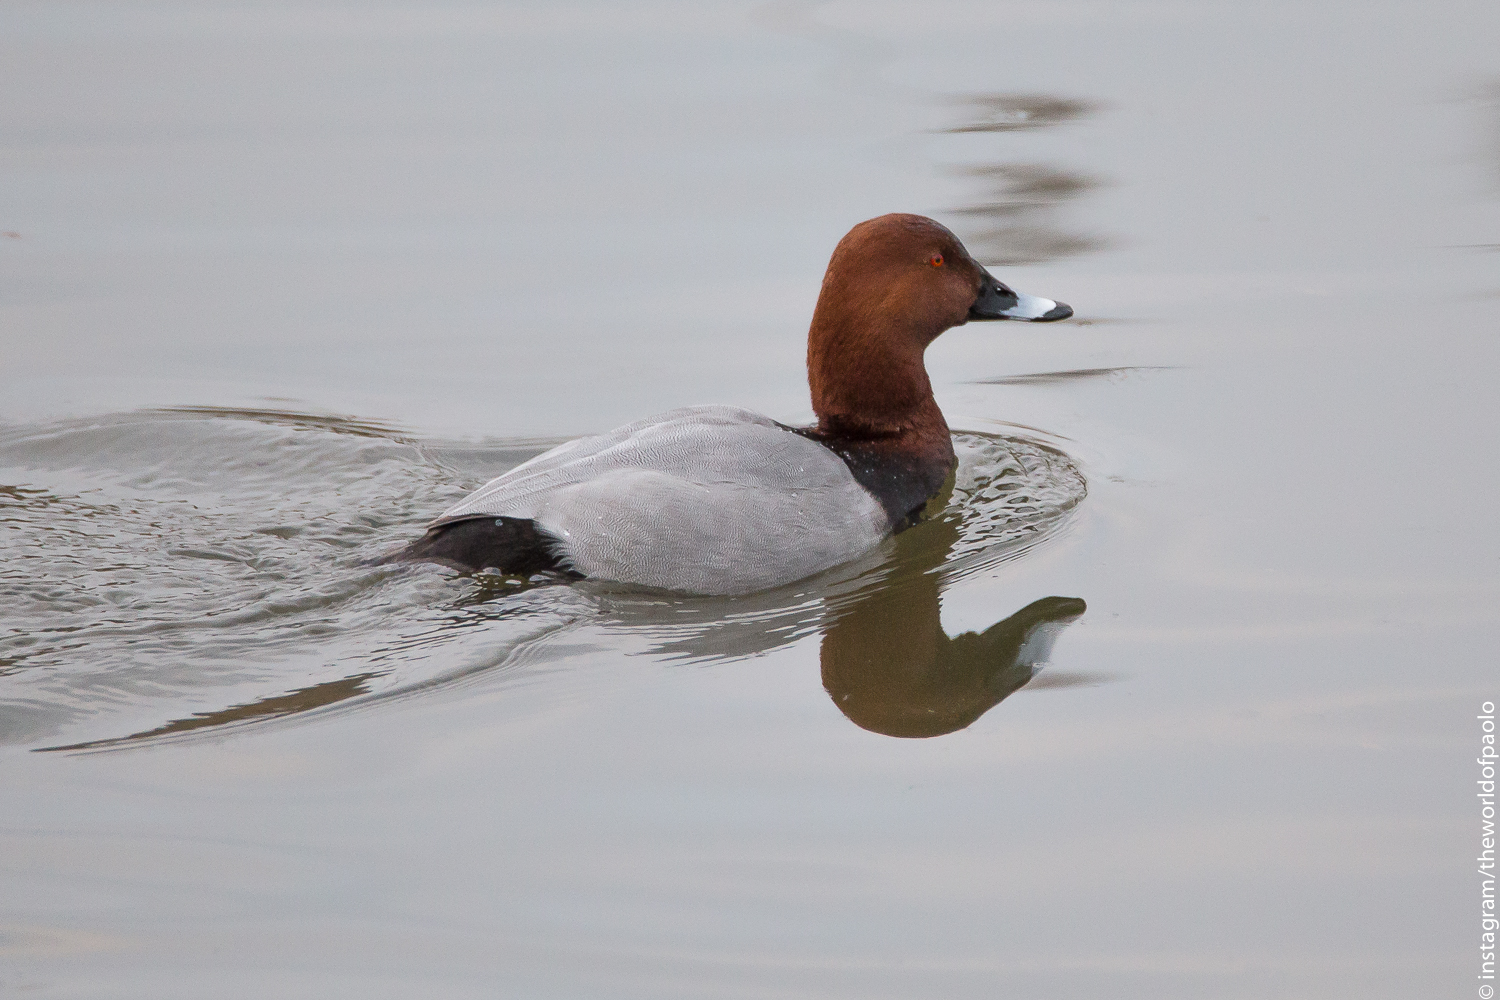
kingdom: Animalia
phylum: Chordata
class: Aves
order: Anseriformes
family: Anatidae
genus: Aythya
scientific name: Aythya ferina
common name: Common pochard
